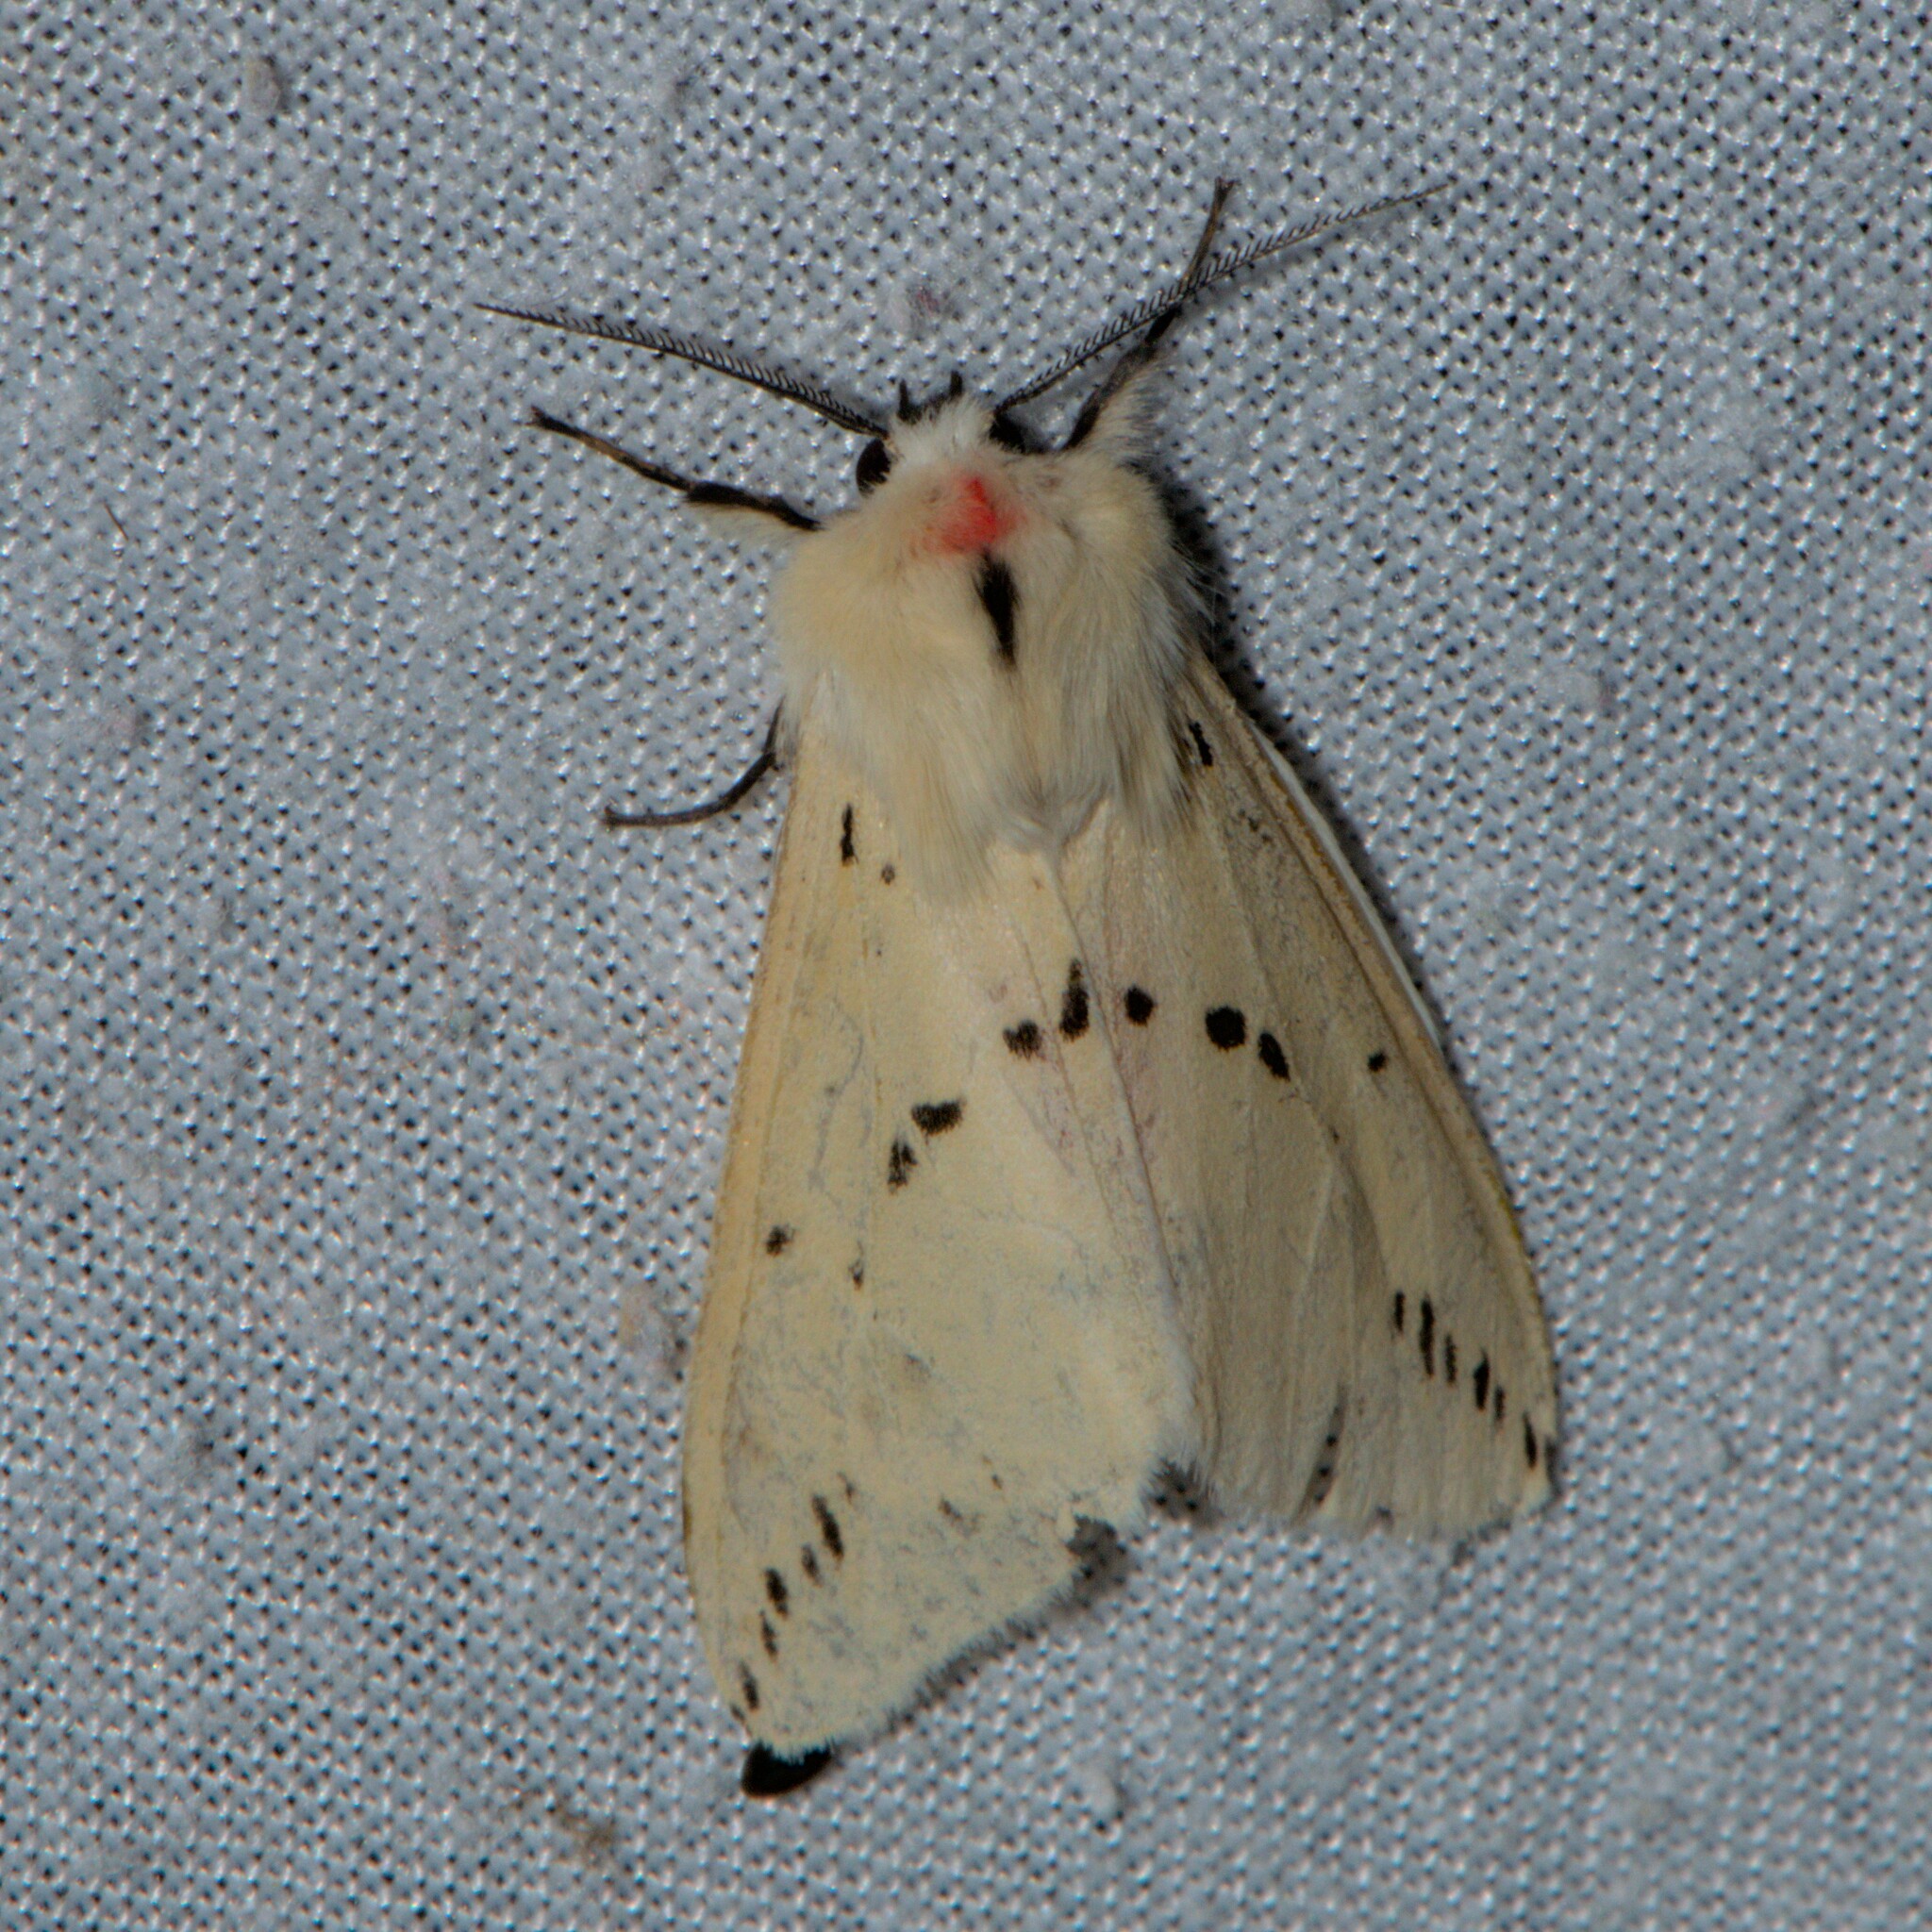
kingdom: Animalia
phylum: Arthropoda
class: Insecta
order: Lepidoptera
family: Erebidae
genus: Lemyra
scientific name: Lemyra stigmata
